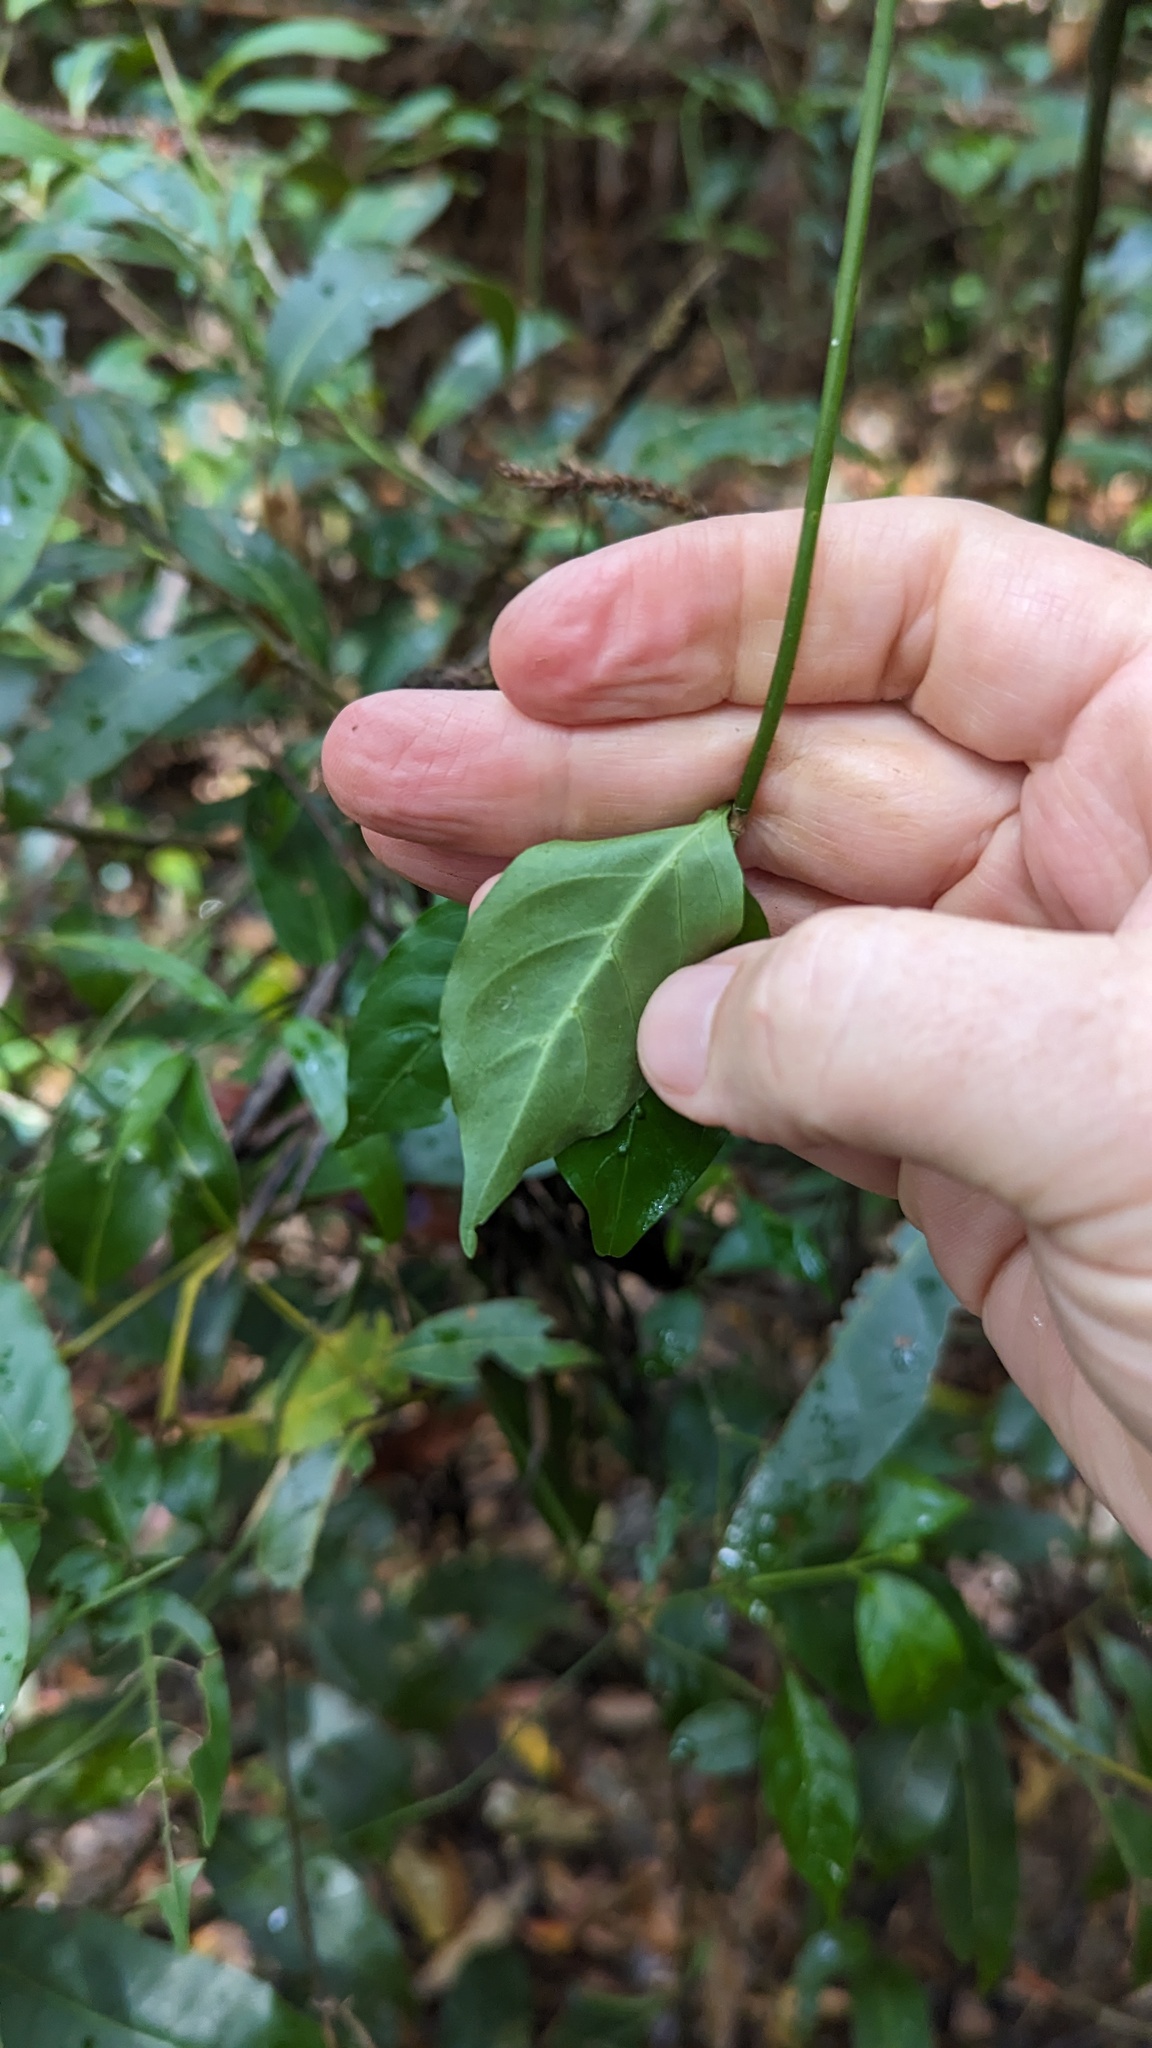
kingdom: Plantae
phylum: Tracheophyta
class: Magnoliopsida
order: Gentianales
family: Rubiaceae
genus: Gynochthodes
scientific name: Gynochthodes jasminoides
